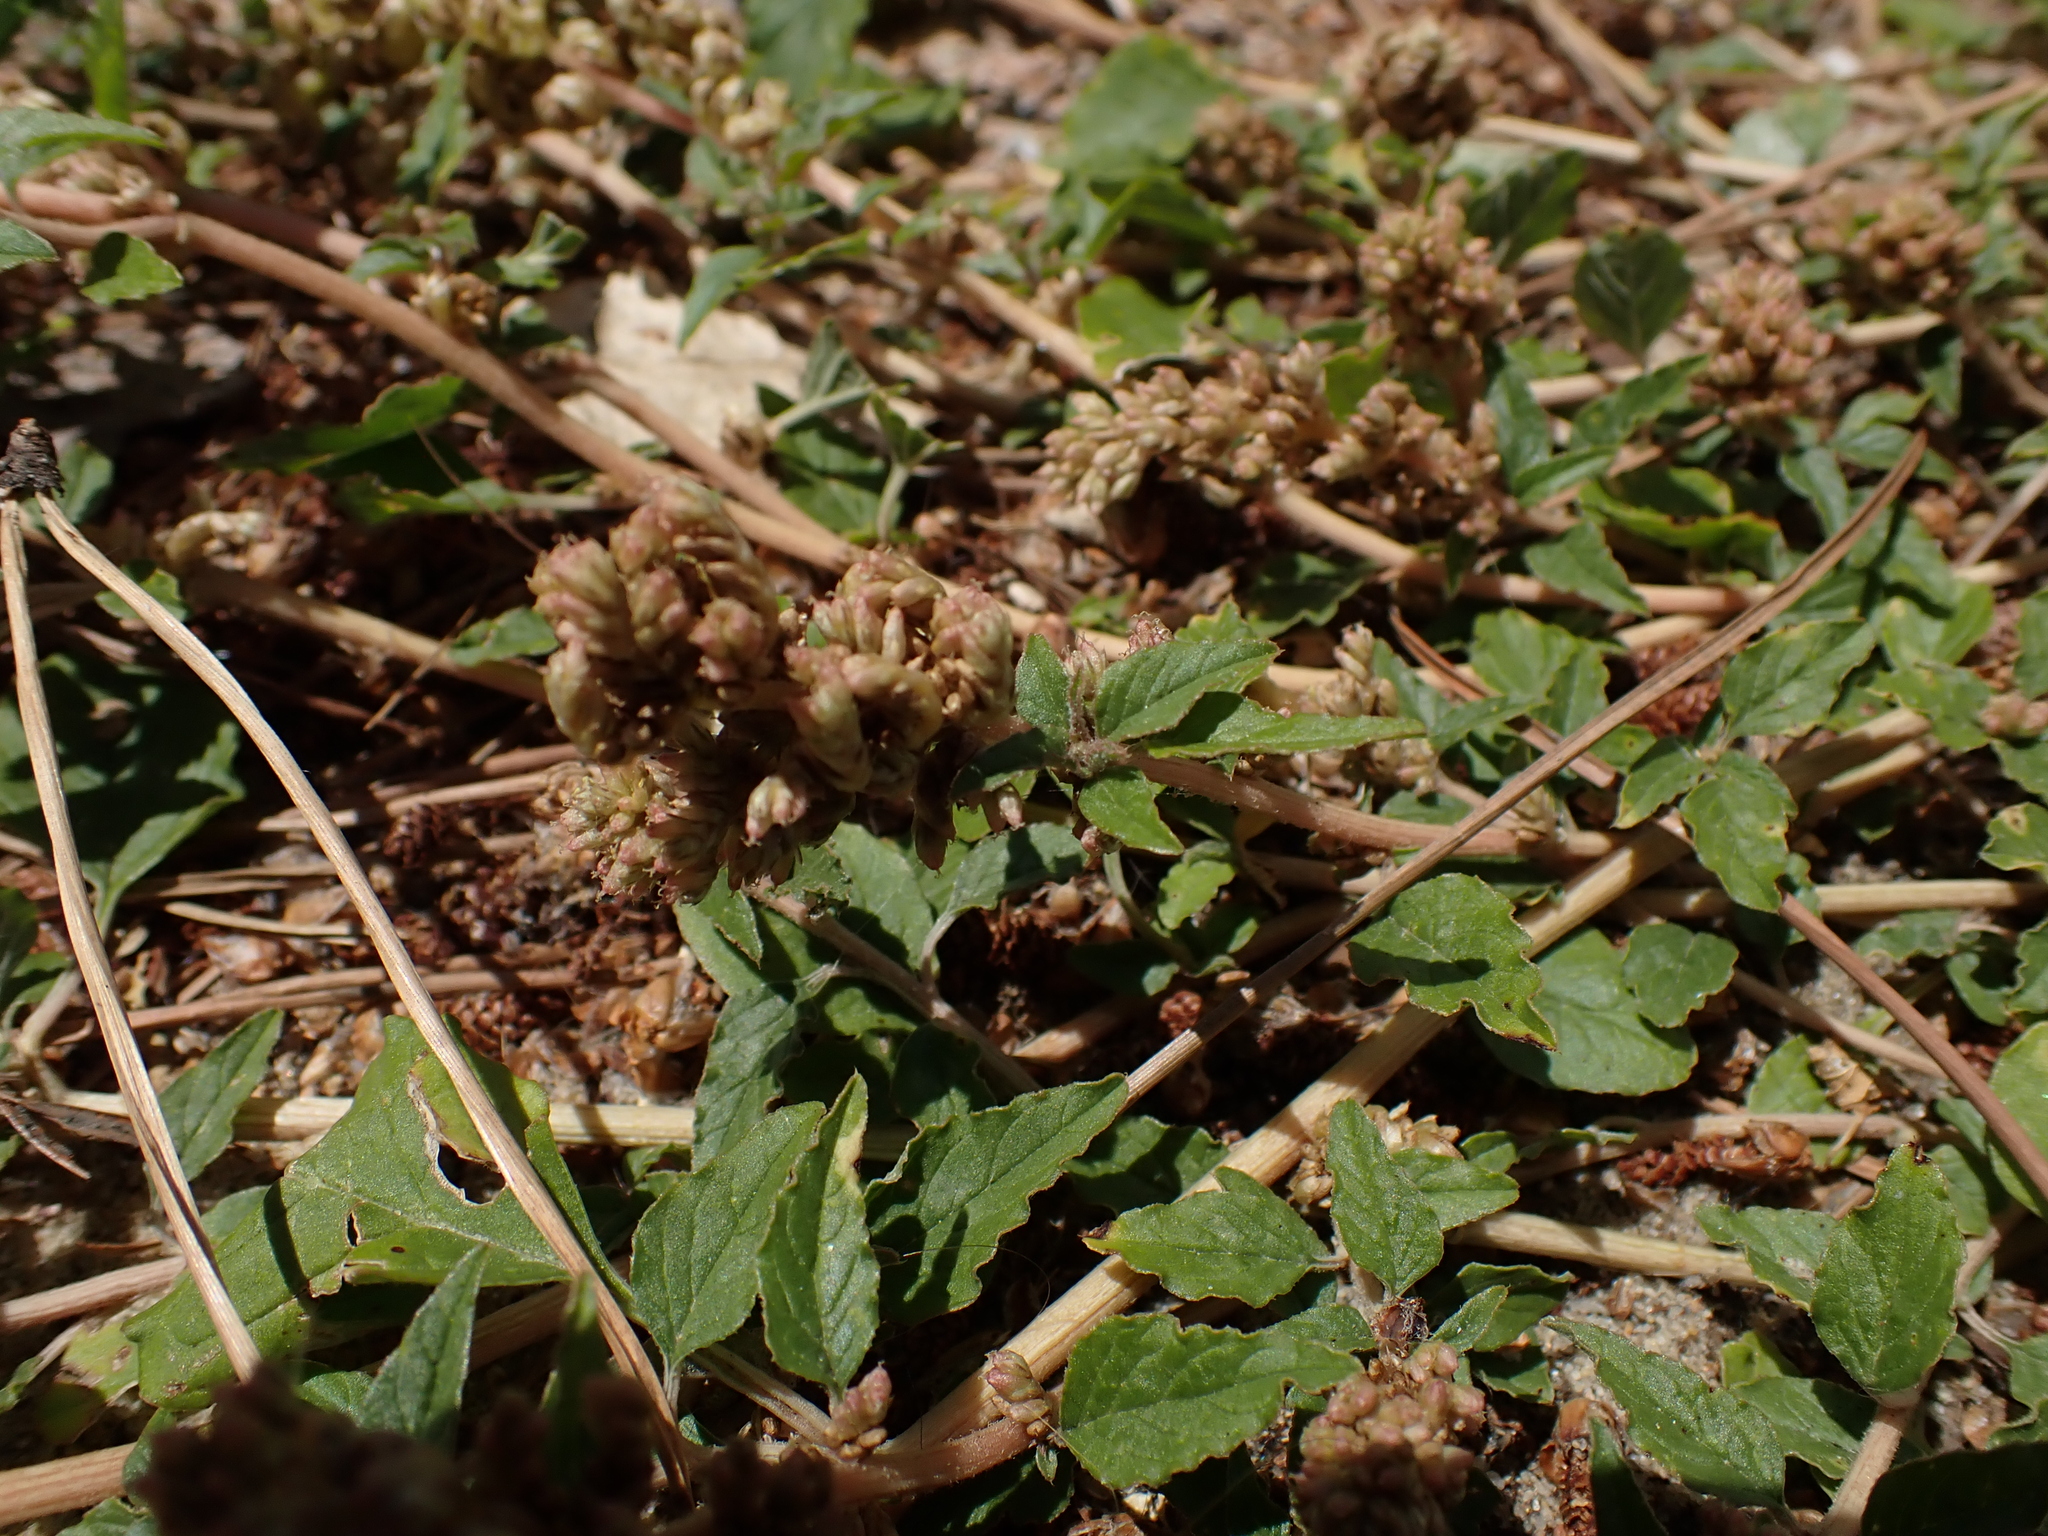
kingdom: Plantae
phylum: Tracheophyta
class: Magnoliopsida
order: Caryophyllales
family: Amaranthaceae
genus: Amaranthus
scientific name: Amaranthus deflexus
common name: Perennial pigweed
